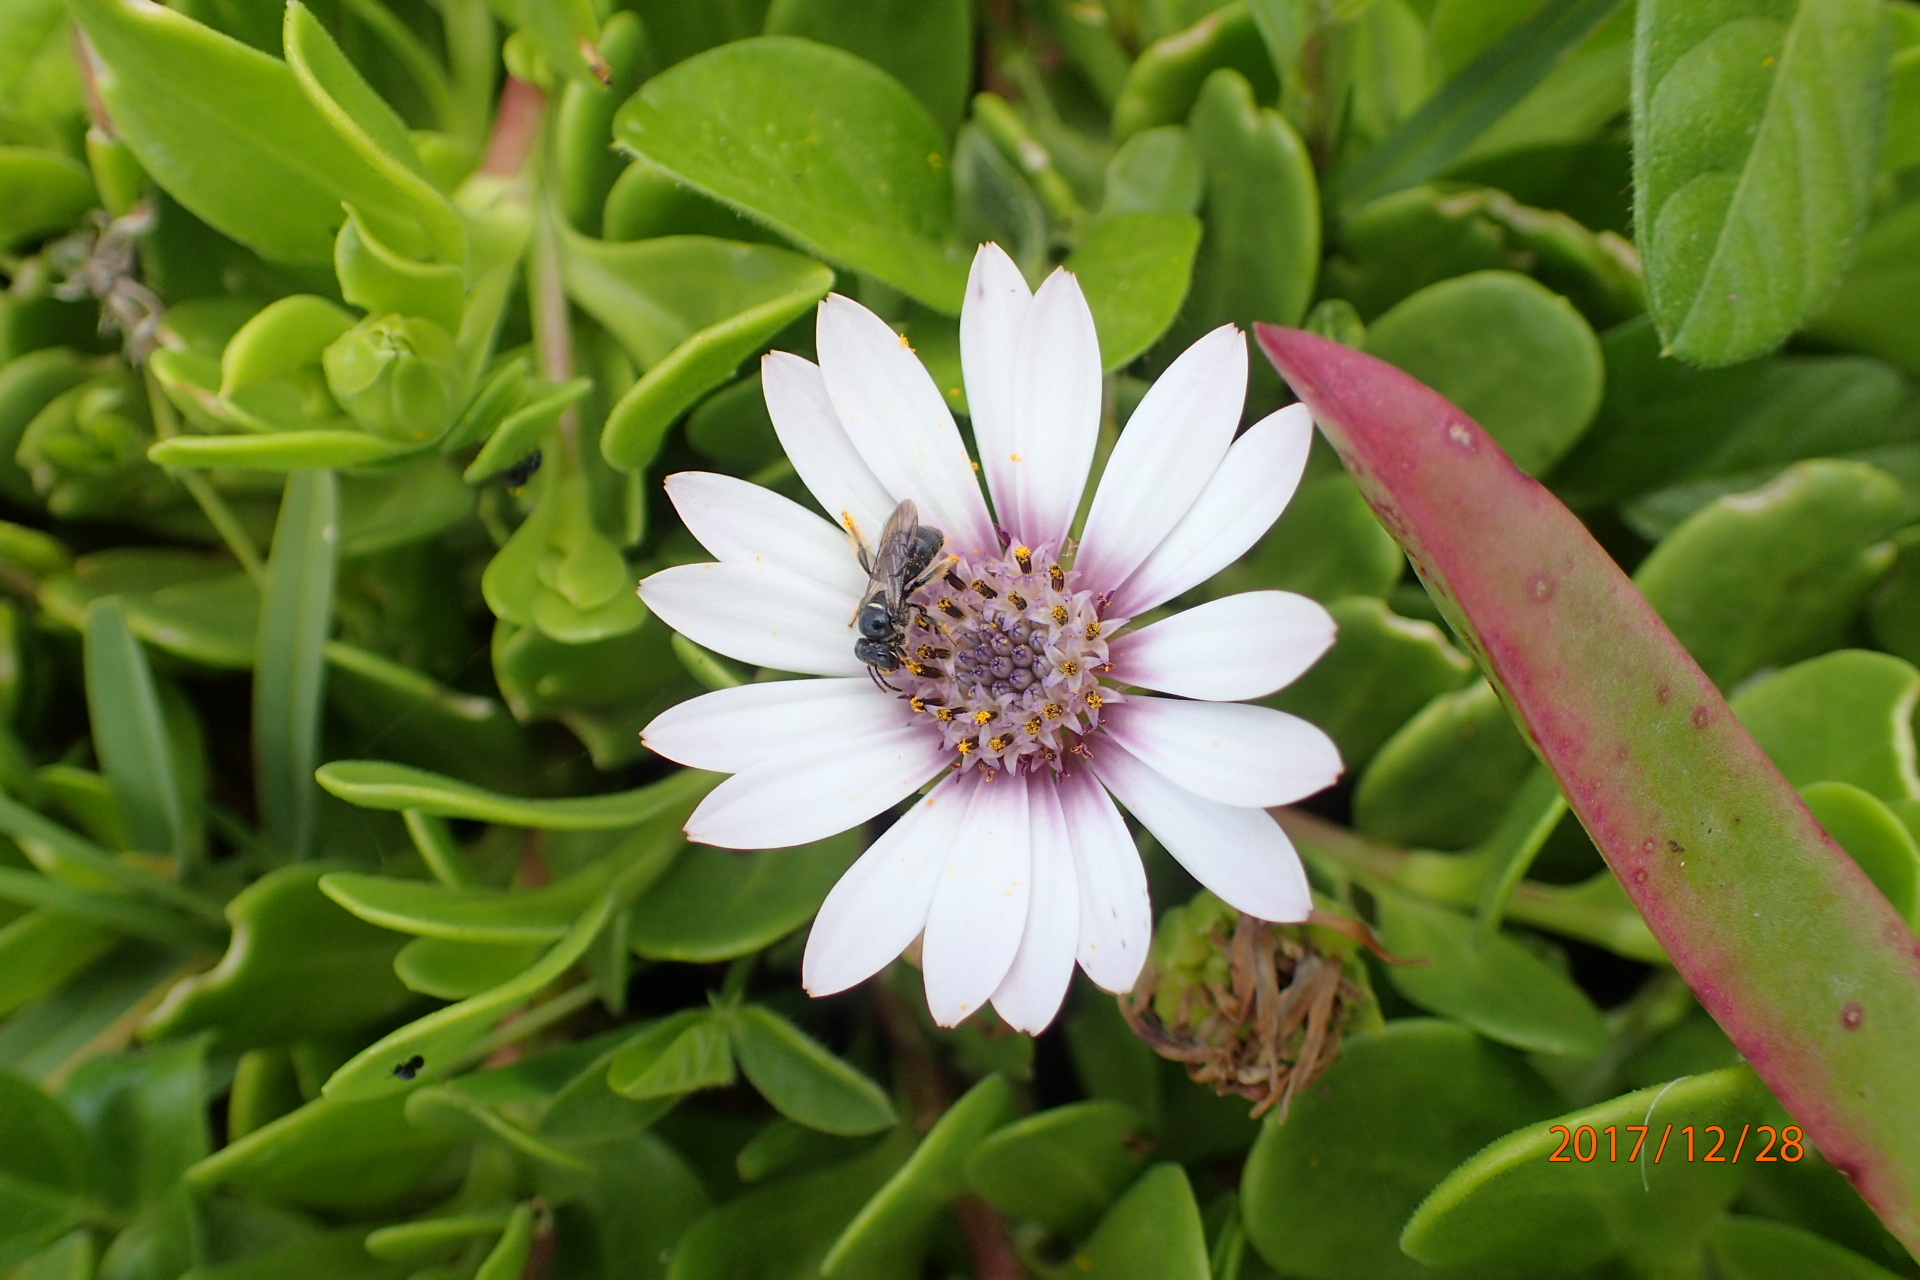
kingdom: Plantae
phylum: Tracheophyta
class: Magnoliopsida
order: Asterales
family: Asteraceae
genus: Dimorphotheca
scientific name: Dimorphotheca fruticosa
